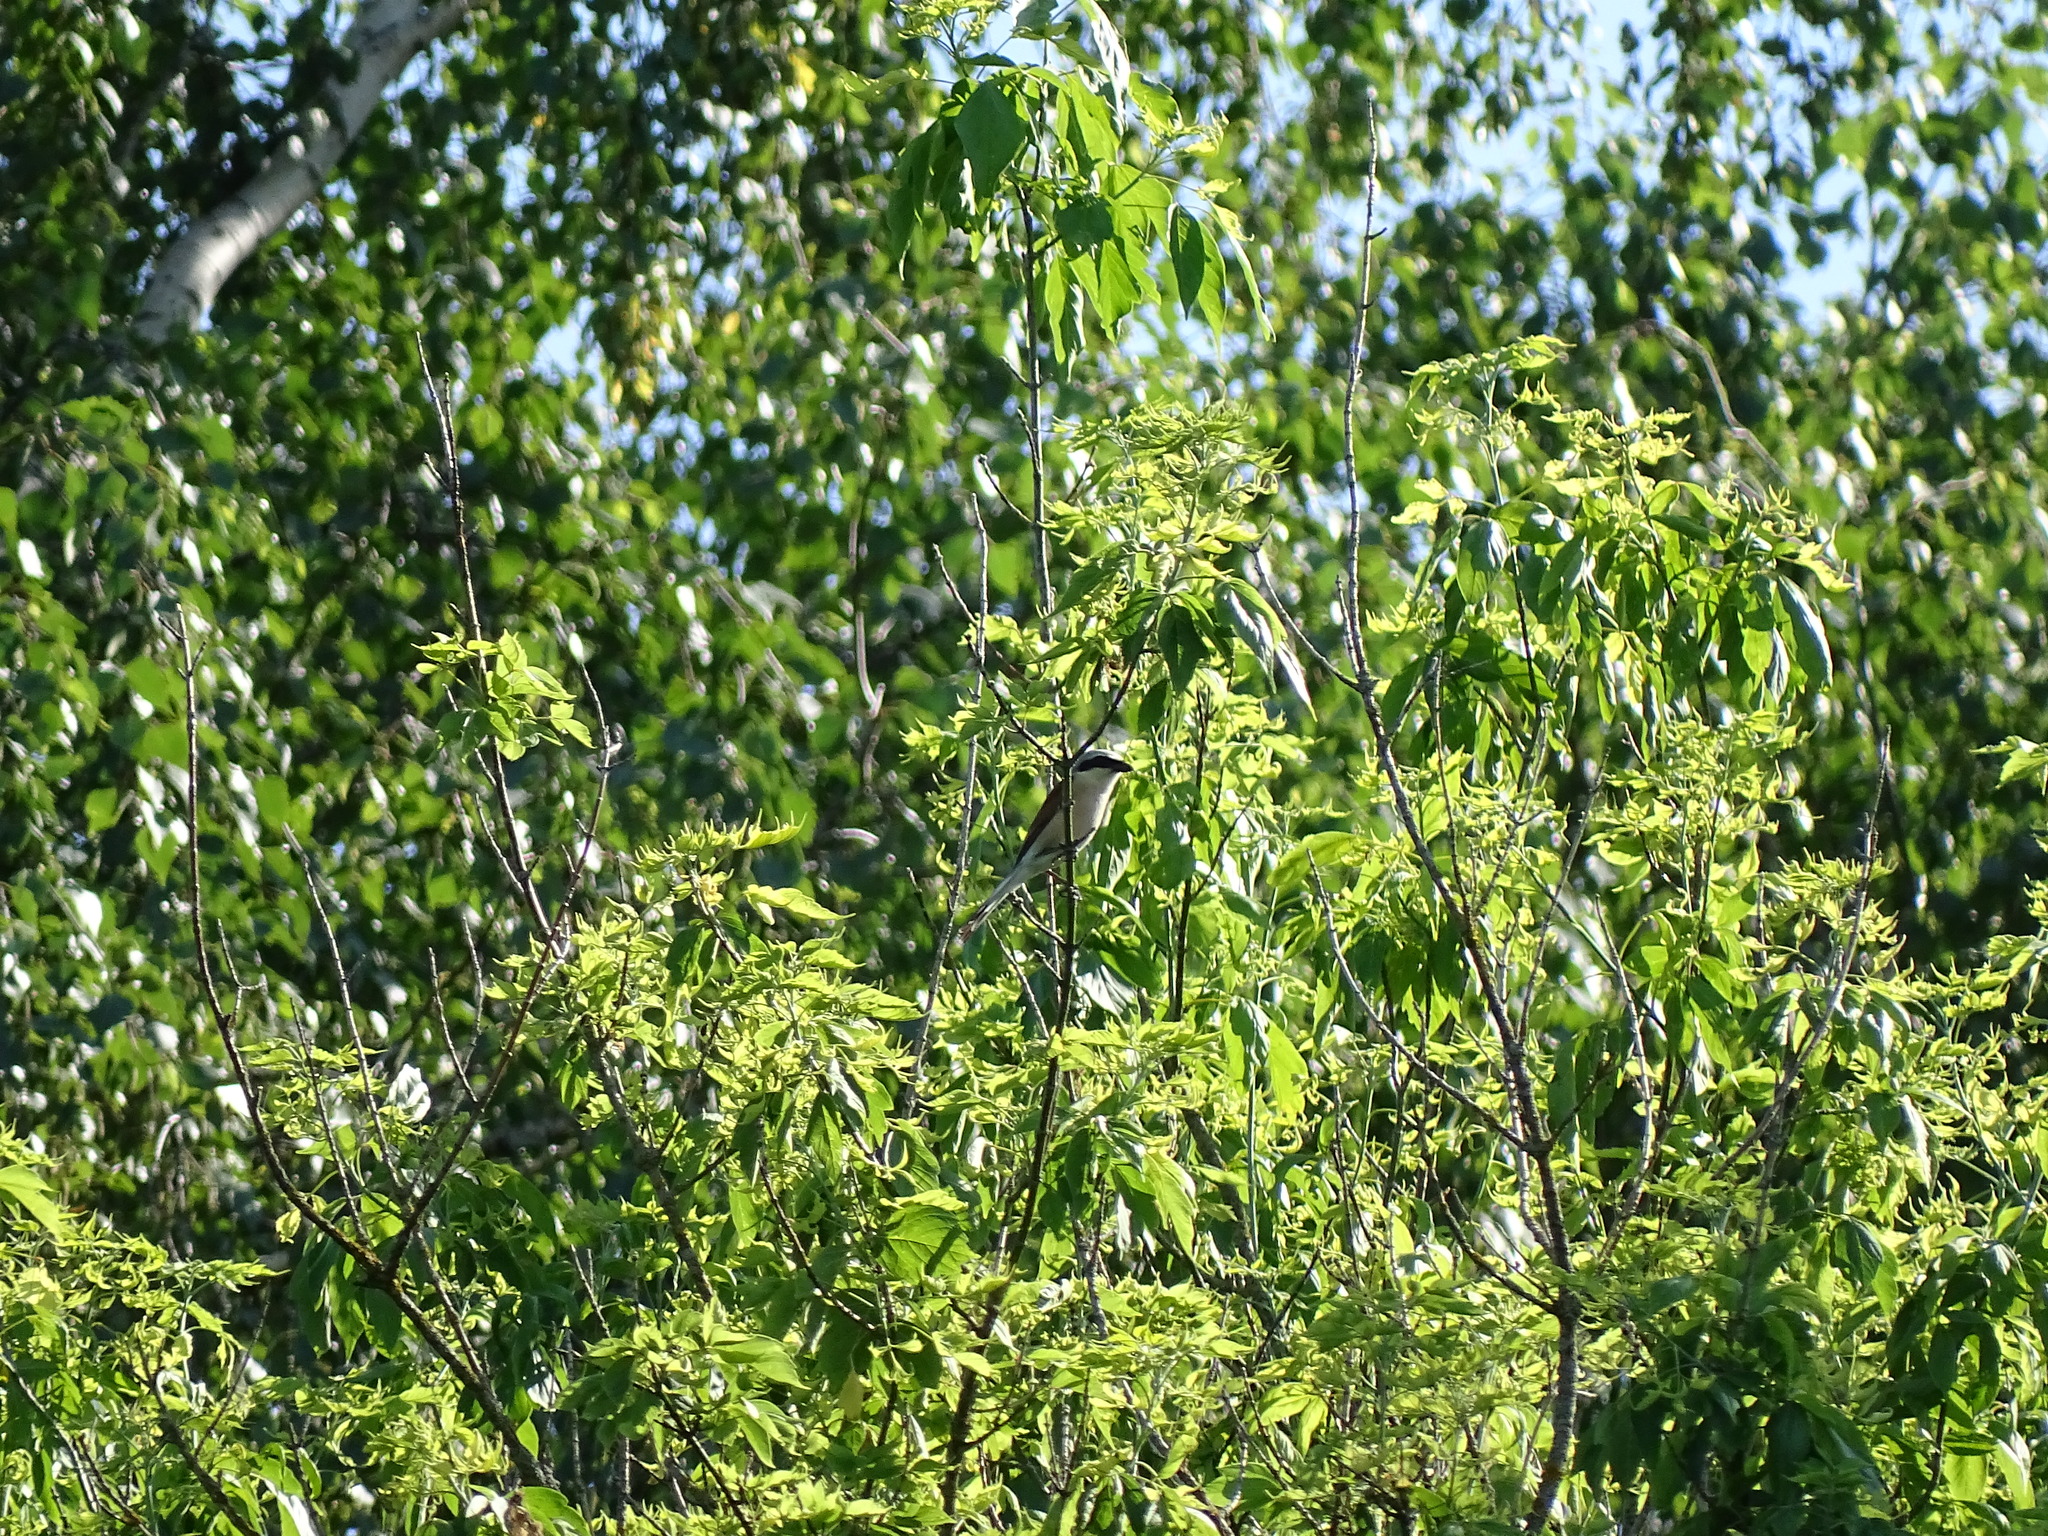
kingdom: Animalia
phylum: Chordata
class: Aves
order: Passeriformes
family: Laniidae
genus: Lanius
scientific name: Lanius collurio
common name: Red-backed shrike
